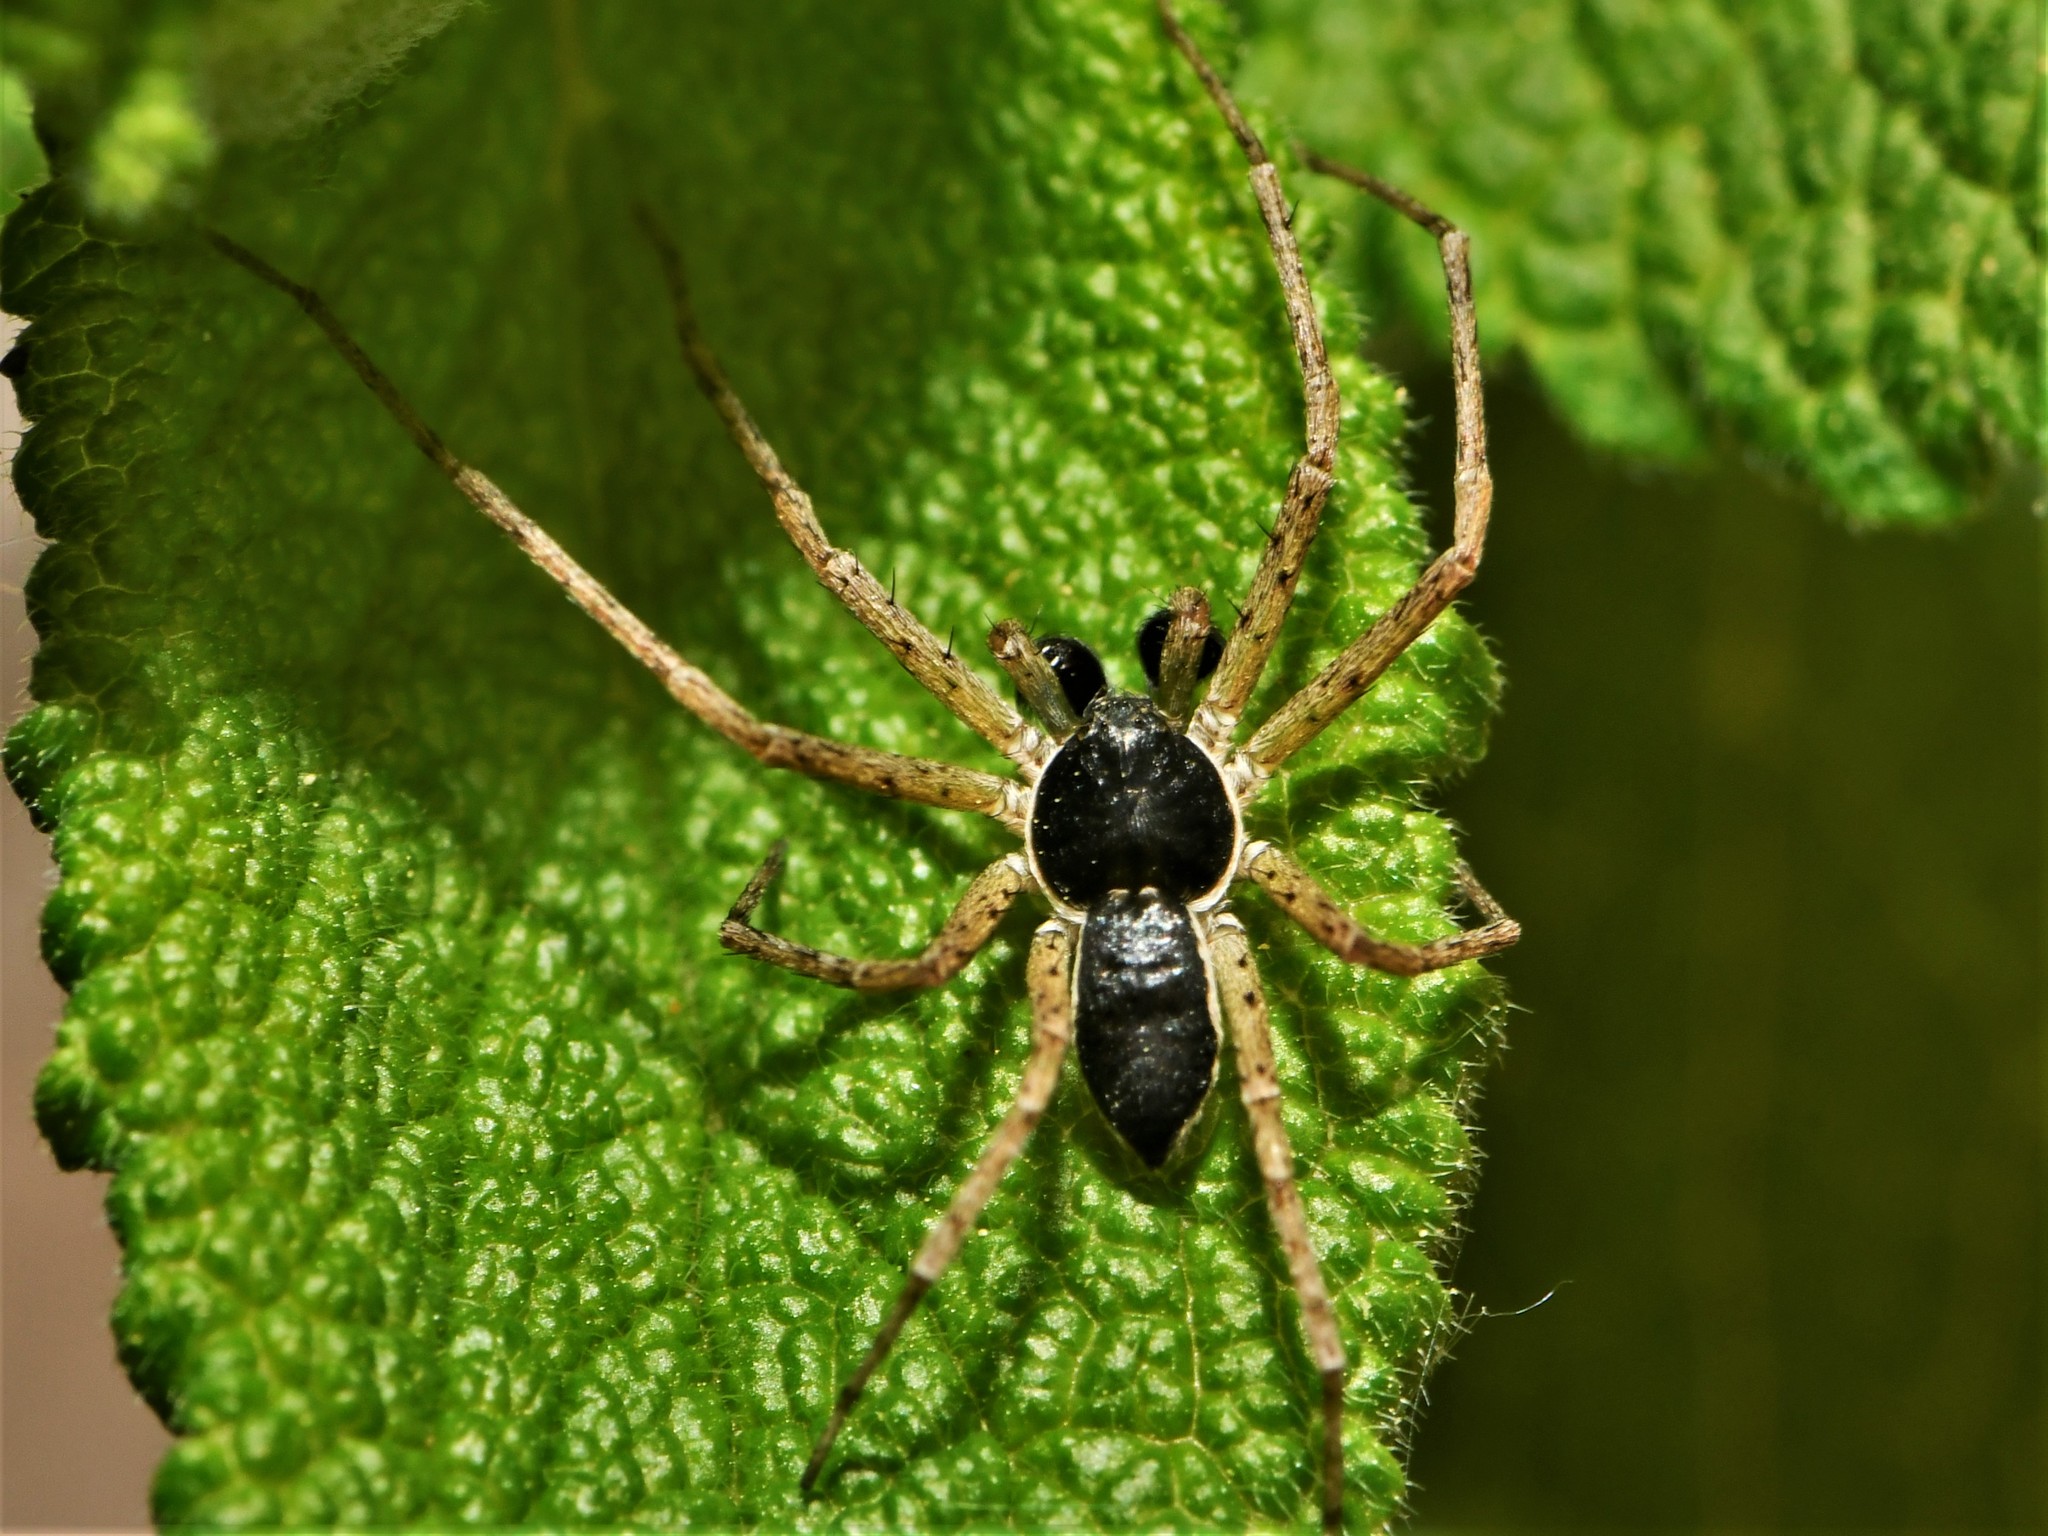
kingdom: Animalia
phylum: Arthropoda
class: Arachnida
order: Araneae
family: Philodromidae
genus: Philodromus
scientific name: Philodromus dispar
